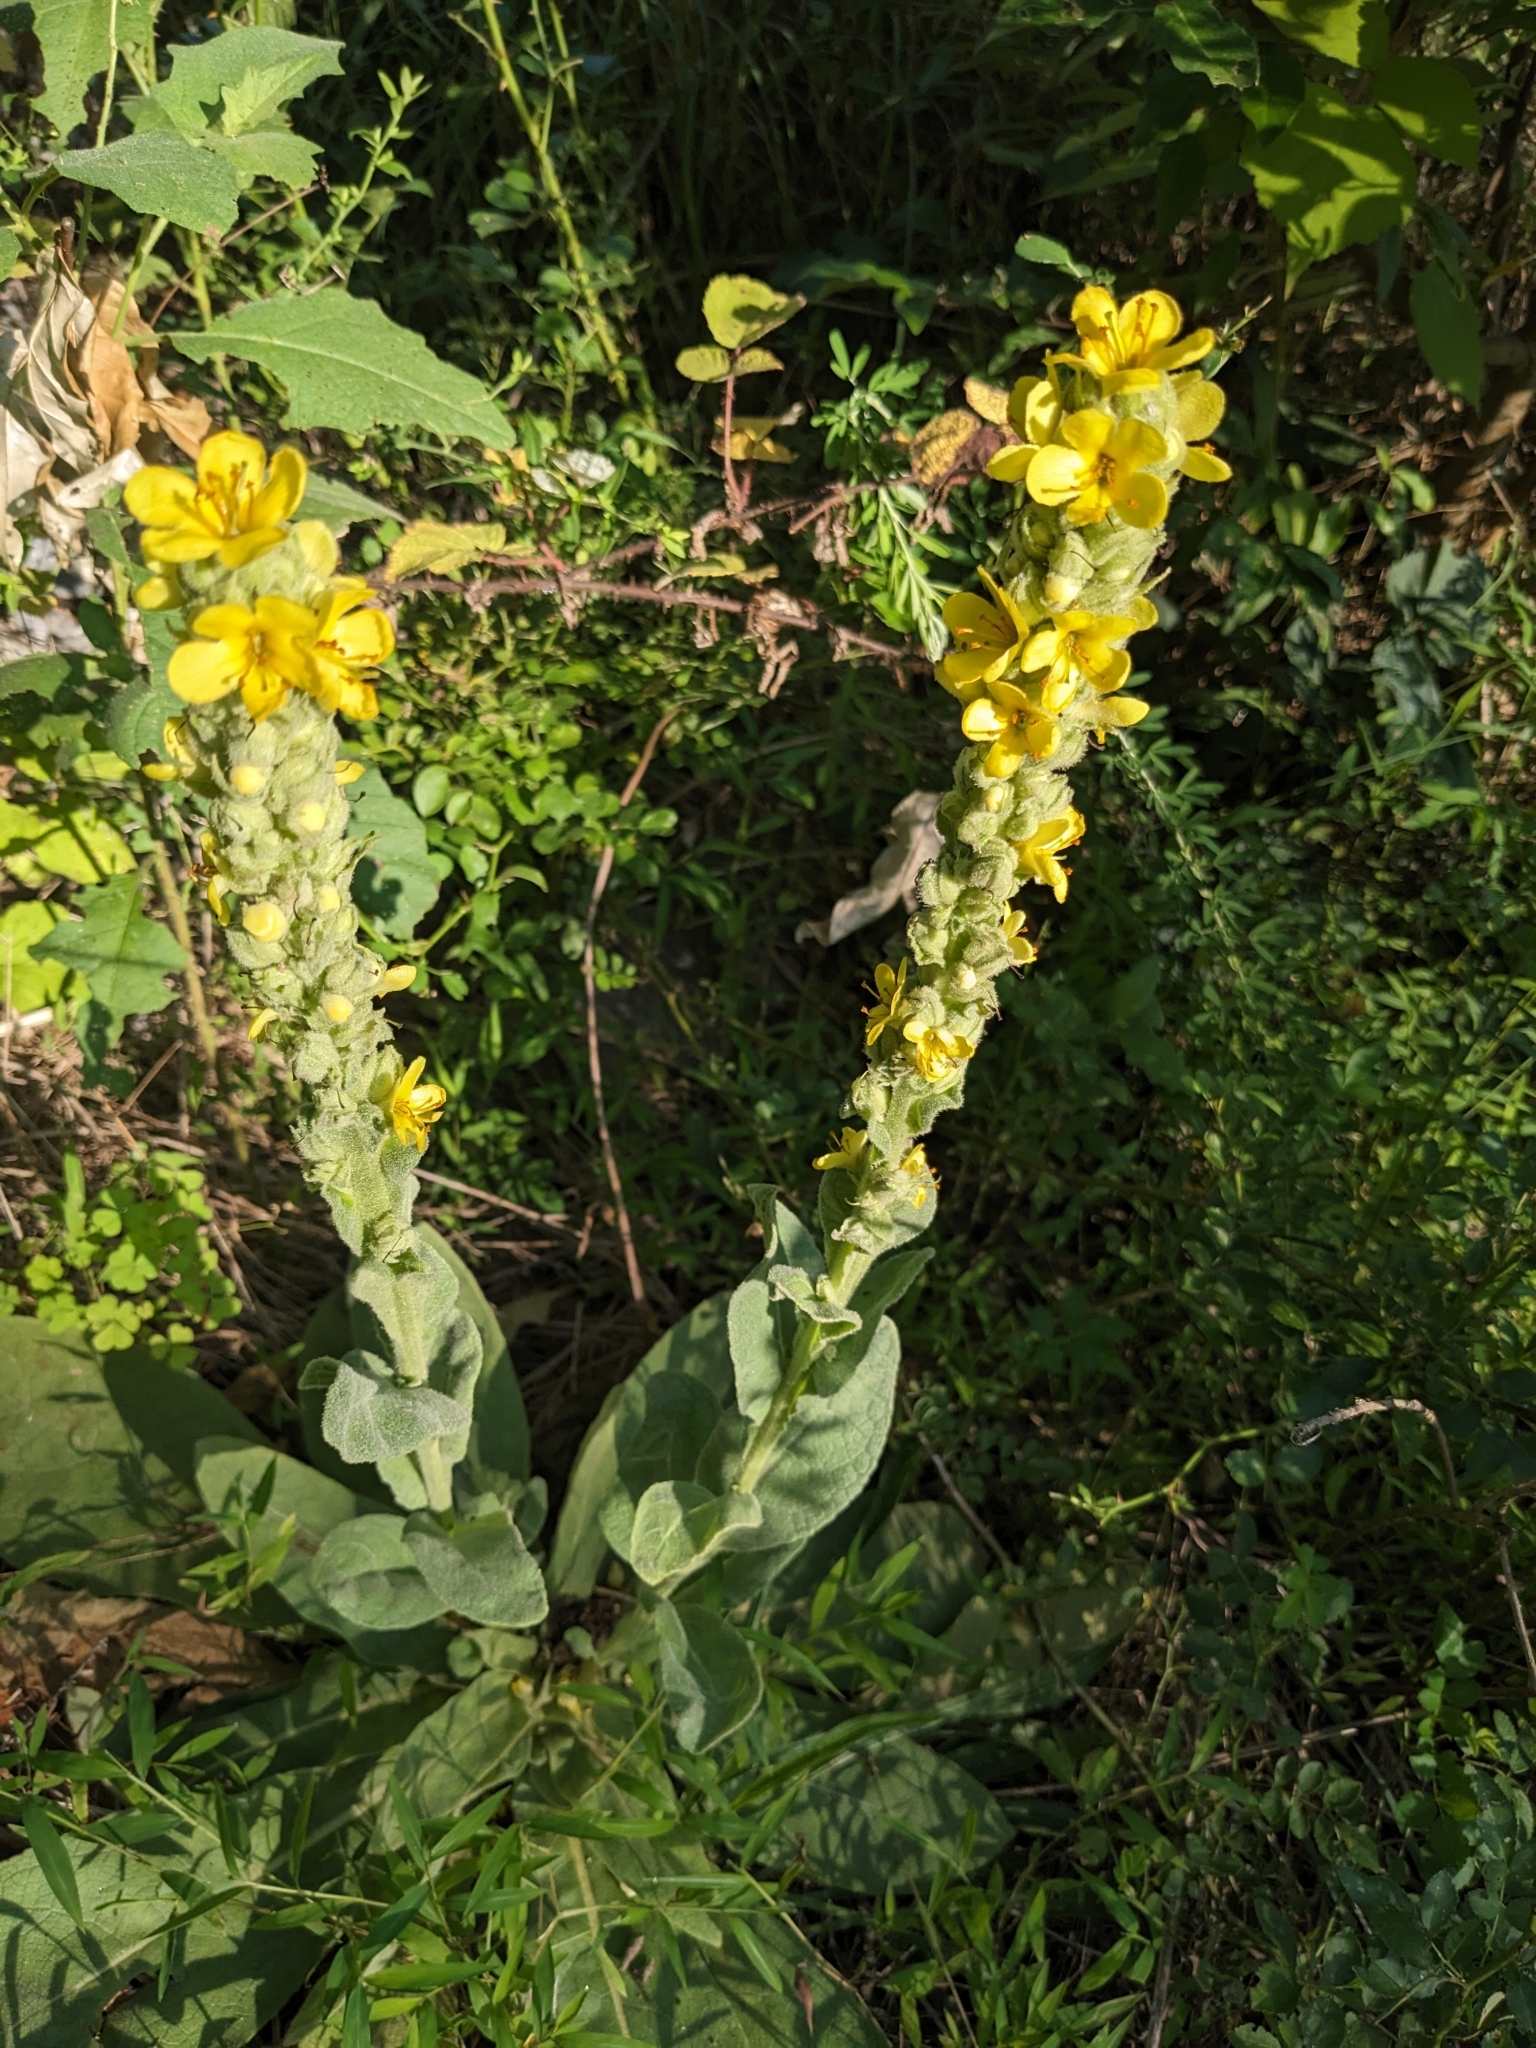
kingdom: Plantae
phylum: Tracheophyta
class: Magnoliopsida
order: Lamiales
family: Scrophulariaceae
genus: Verbascum
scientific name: Verbascum thapsus
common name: Common mullein
